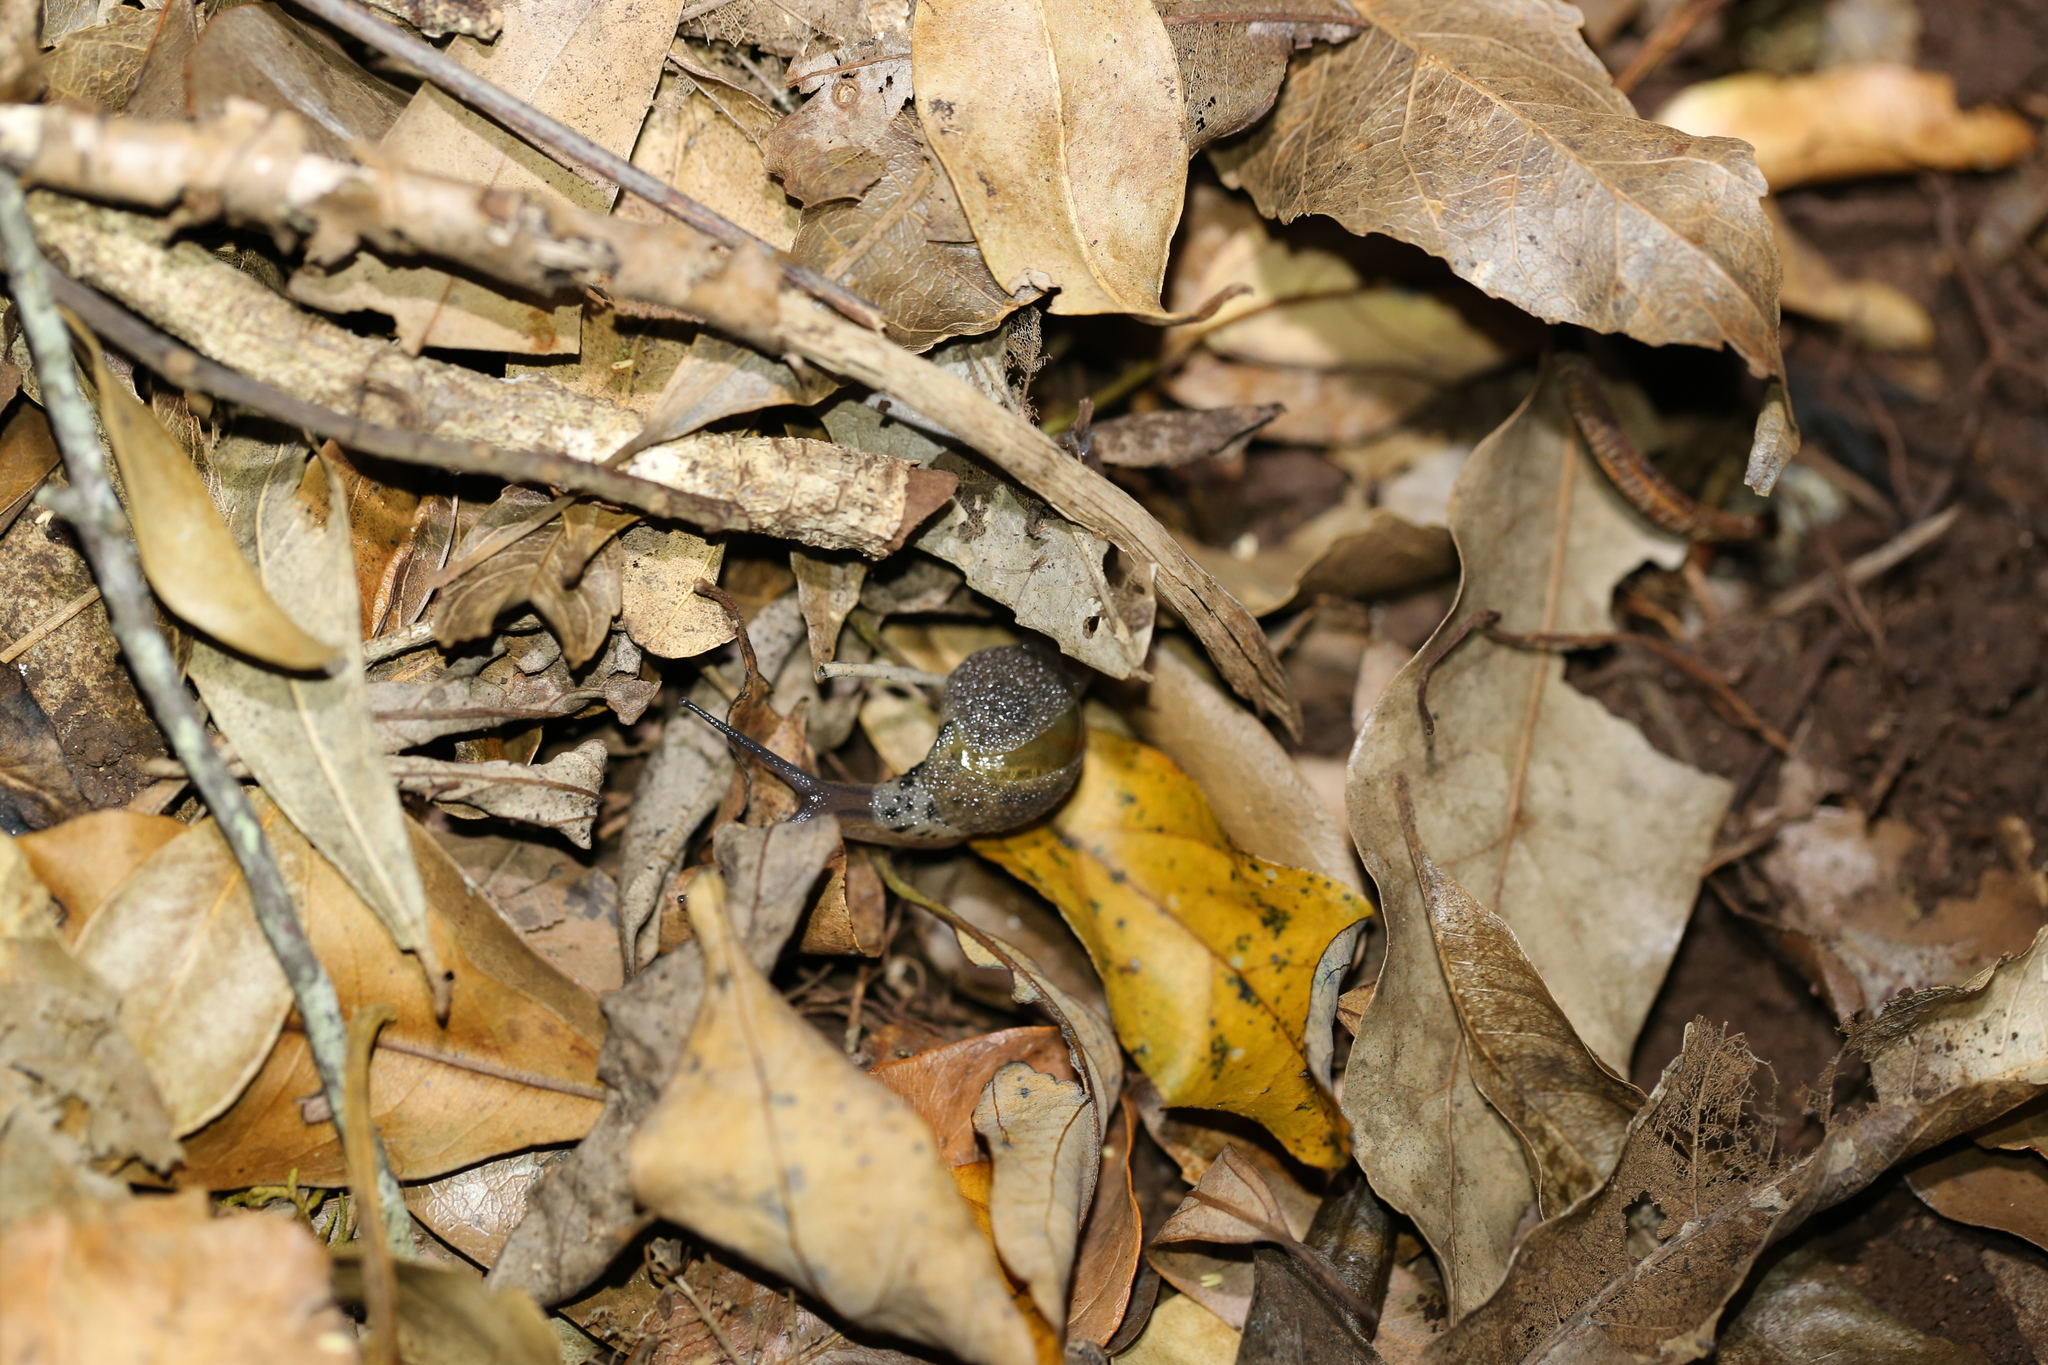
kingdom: Animalia
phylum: Mollusca
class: Gastropoda
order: Stylommatophora
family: Helicarionidae
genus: Stanisicarion
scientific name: Stanisicarion aquila
